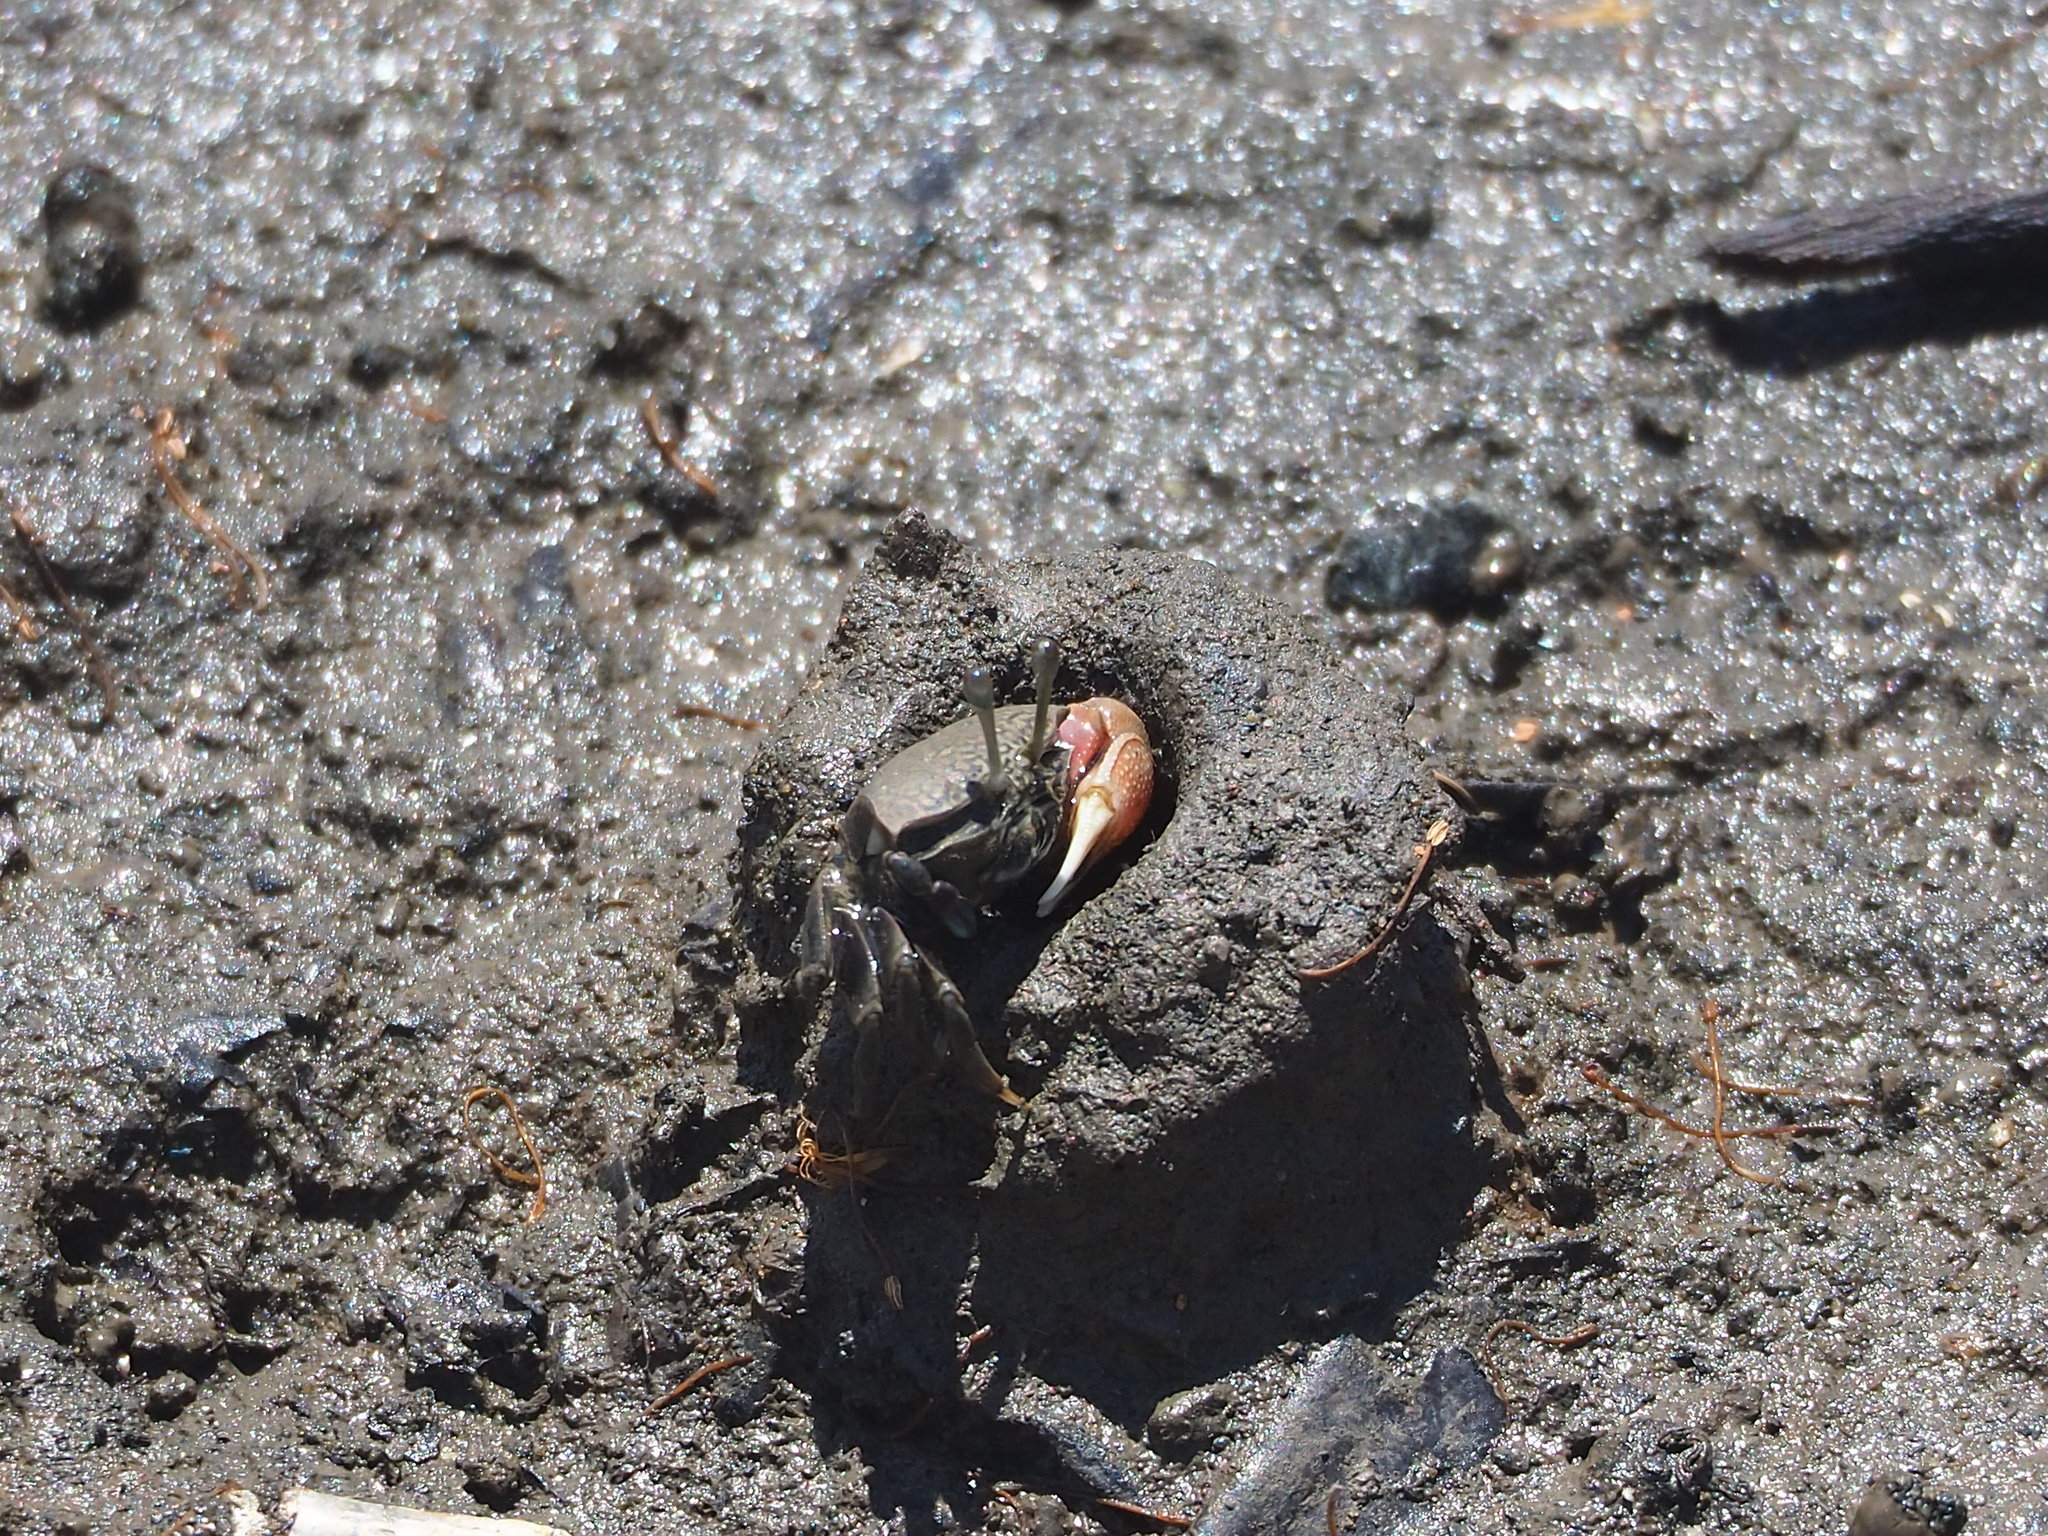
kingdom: Animalia
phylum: Arthropoda
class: Malacostraca
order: Decapoda
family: Ocypodidae
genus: Tubuca
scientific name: Tubuca arcuata
